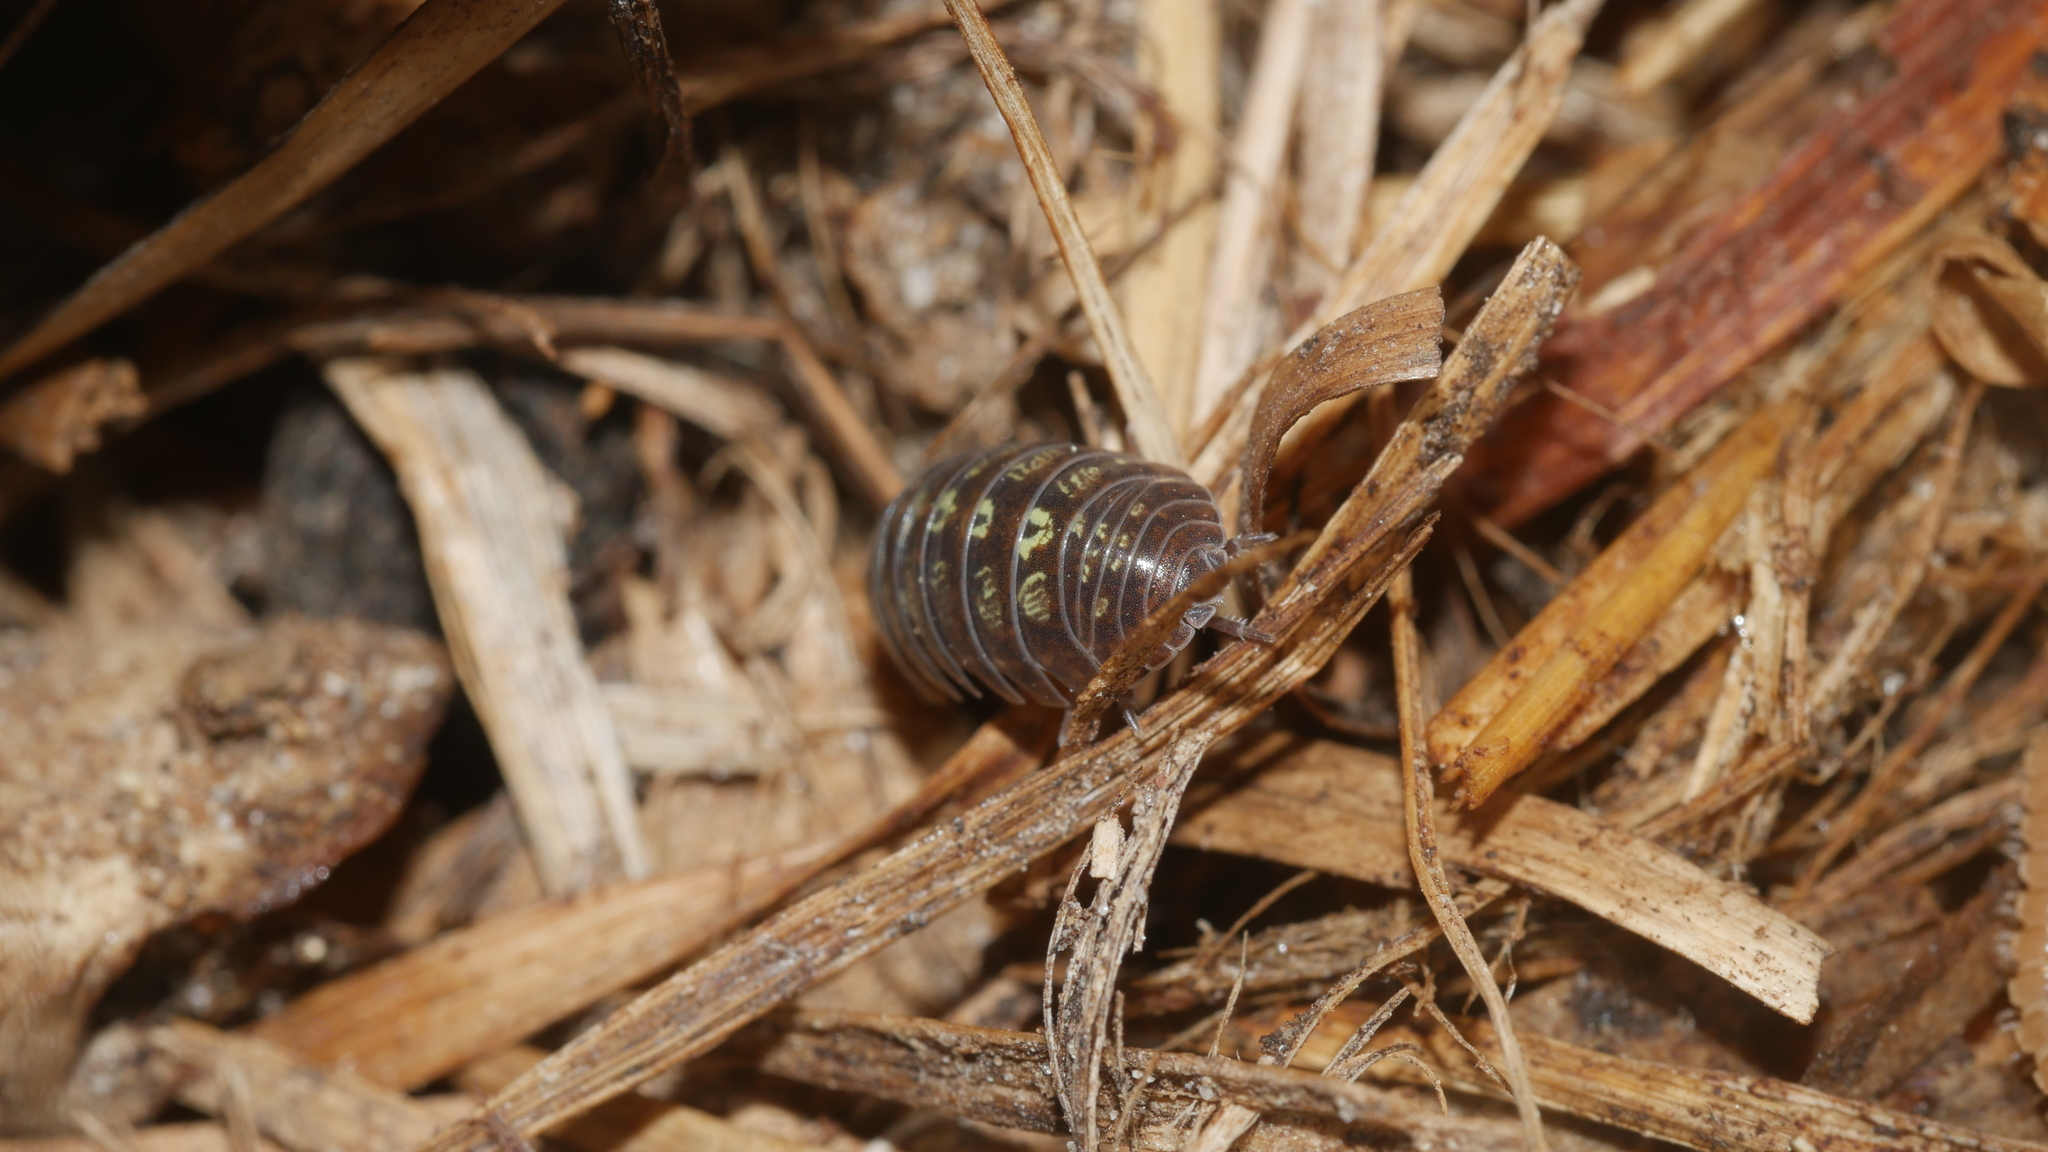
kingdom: Animalia
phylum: Arthropoda
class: Malacostraca
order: Isopoda
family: Armadillidiidae
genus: Armadillidium
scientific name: Armadillidium vulgare
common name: Common pill woodlouse
